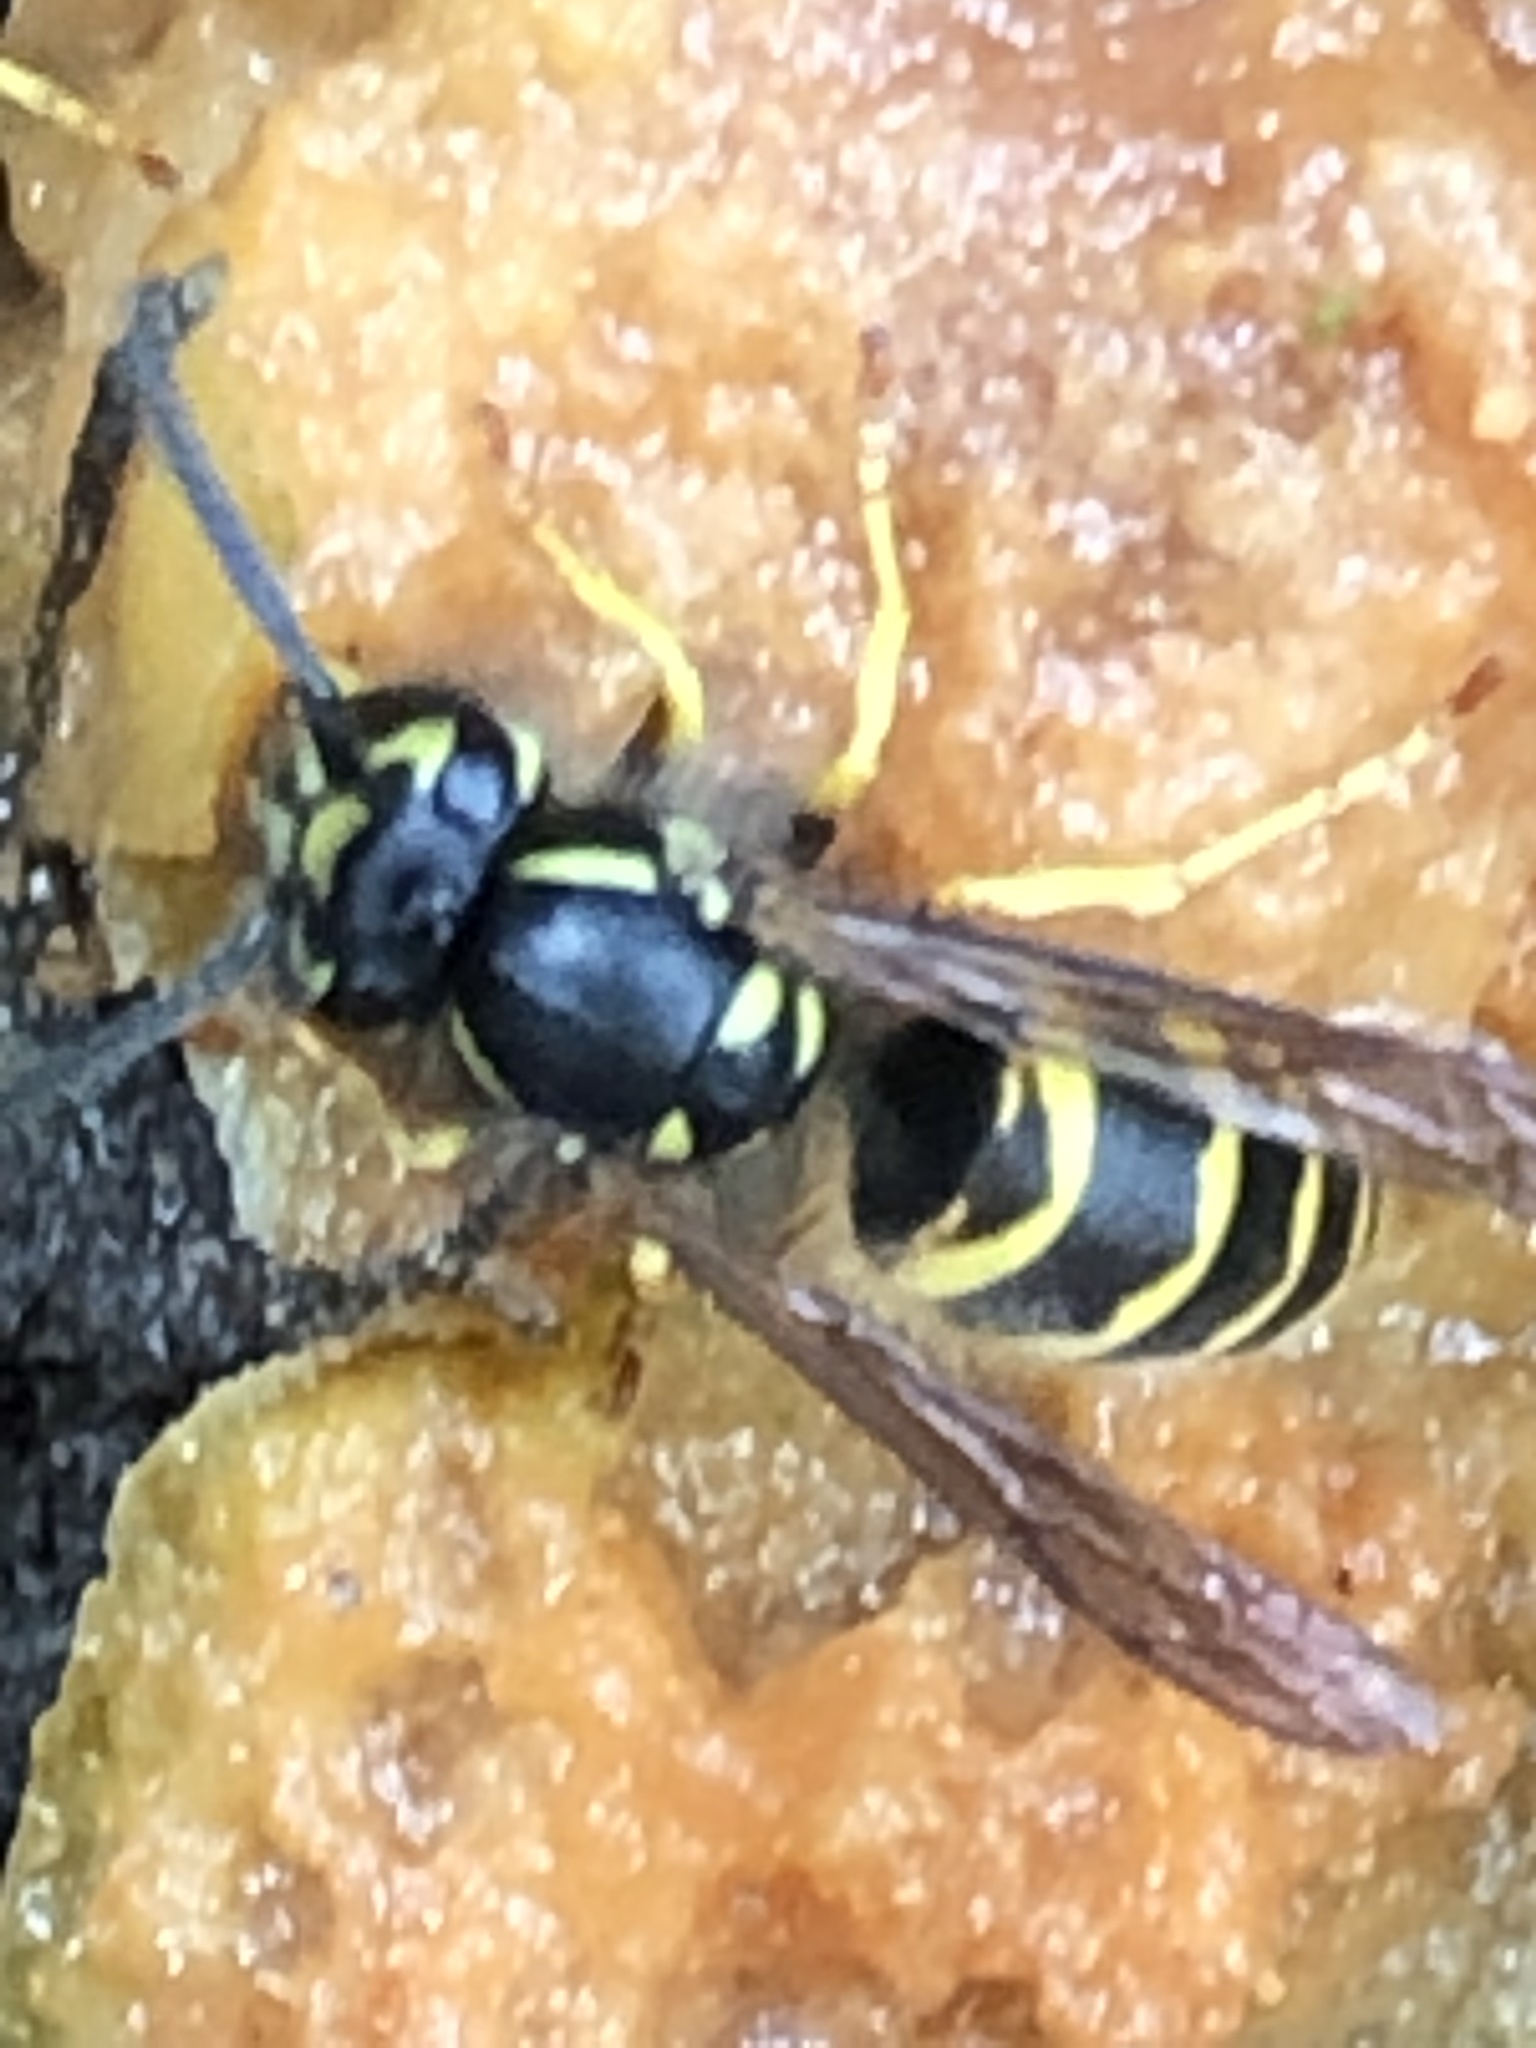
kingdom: Animalia
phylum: Arthropoda
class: Insecta
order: Hymenoptera
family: Vespidae
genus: Vespula
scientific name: Vespula alascensis
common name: Alaska yellowjacket
